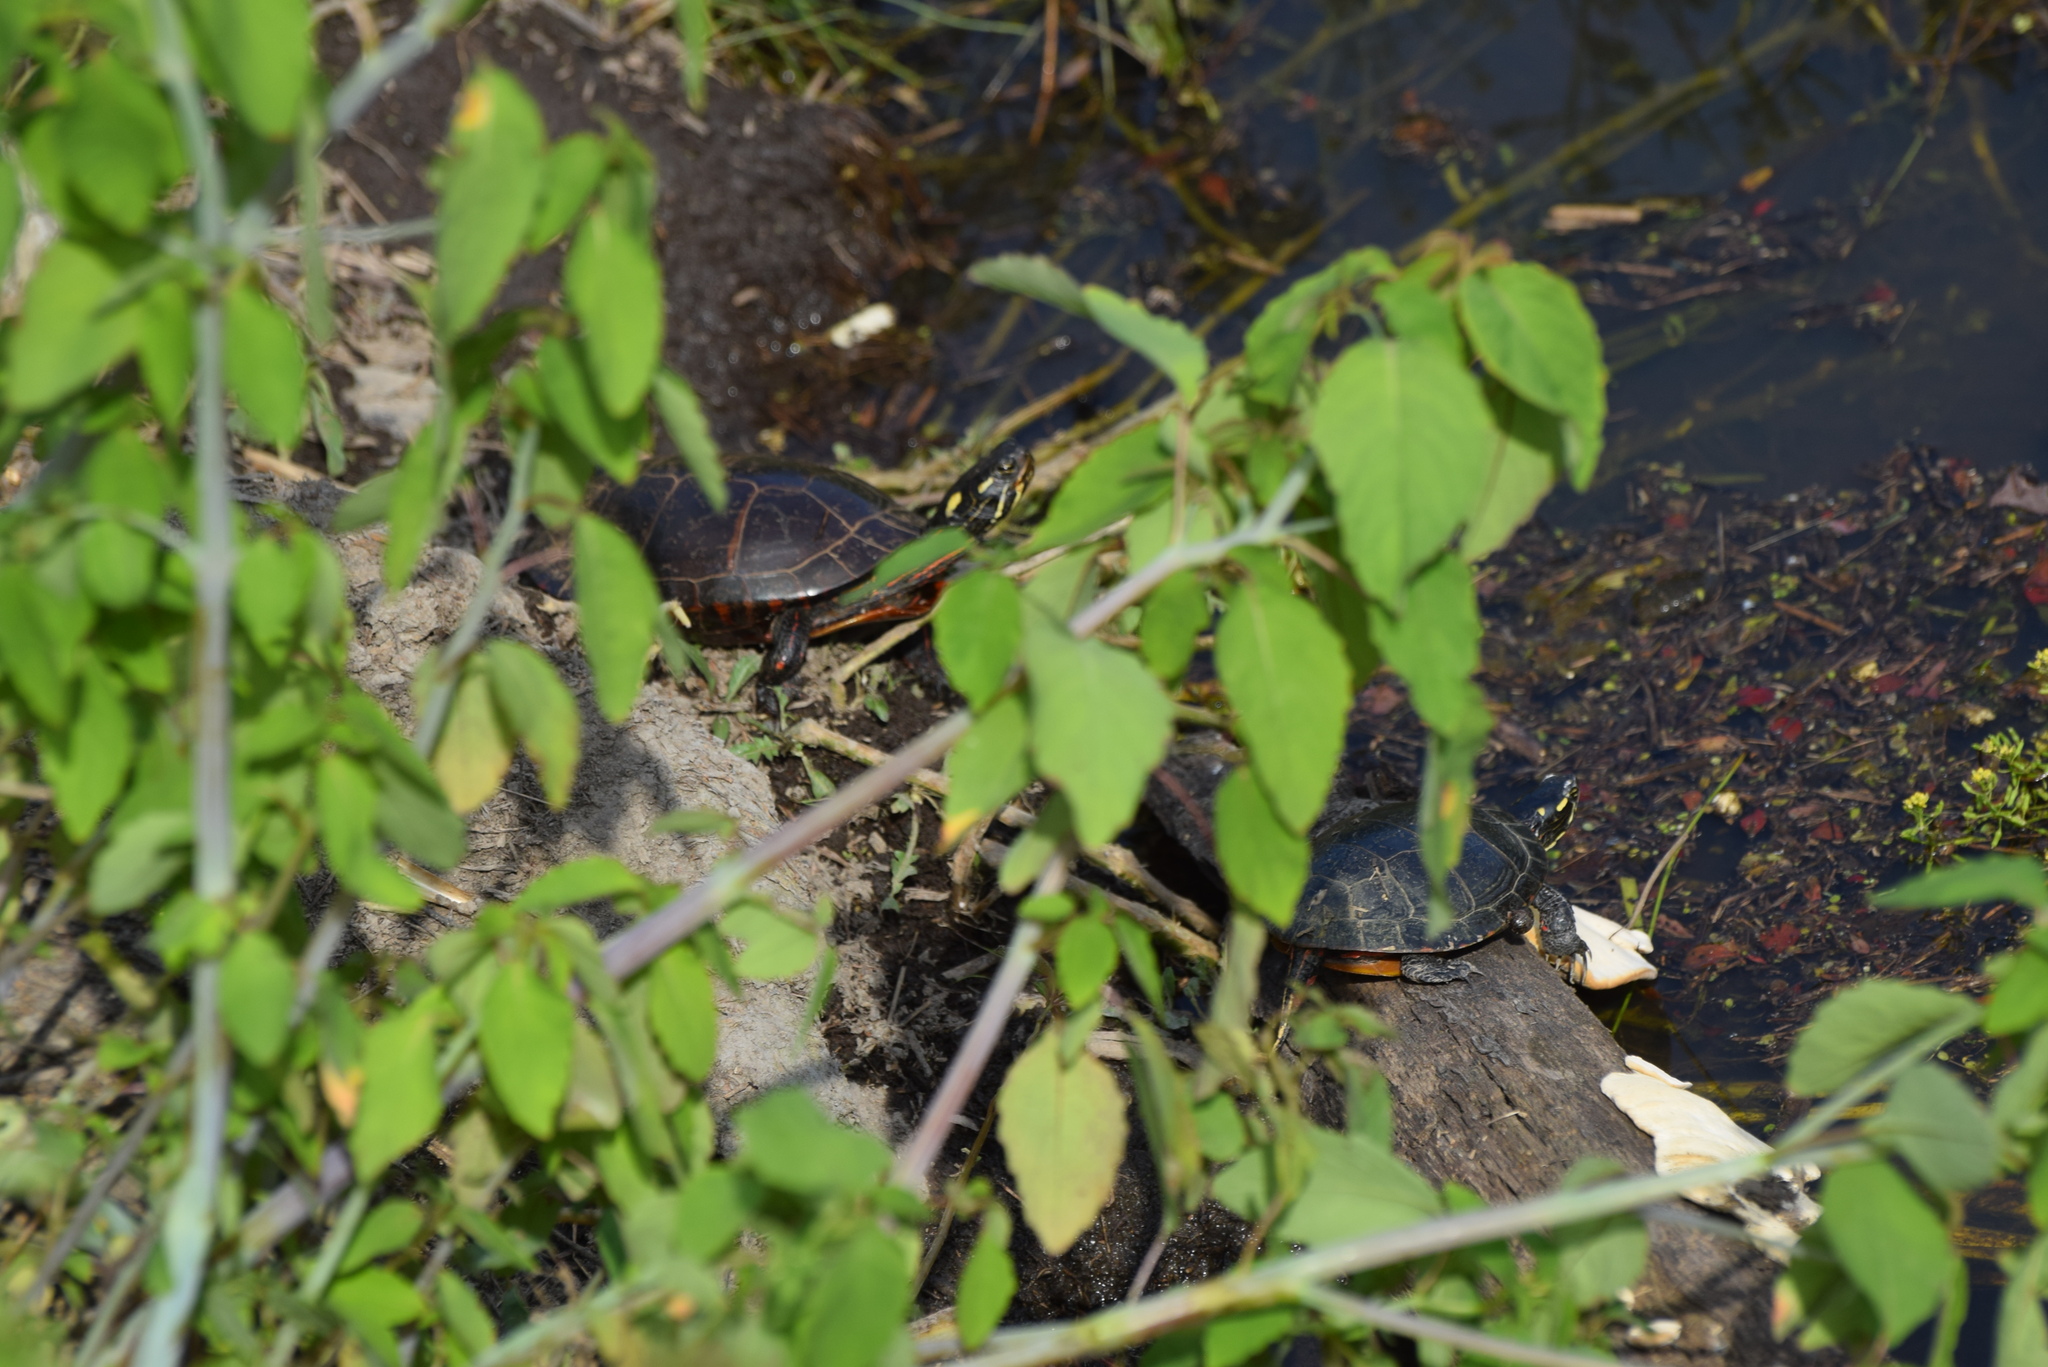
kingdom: Animalia
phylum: Chordata
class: Testudines
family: Emydidae
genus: Chrysemys
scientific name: Chrysemys picta
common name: Painted turtle
